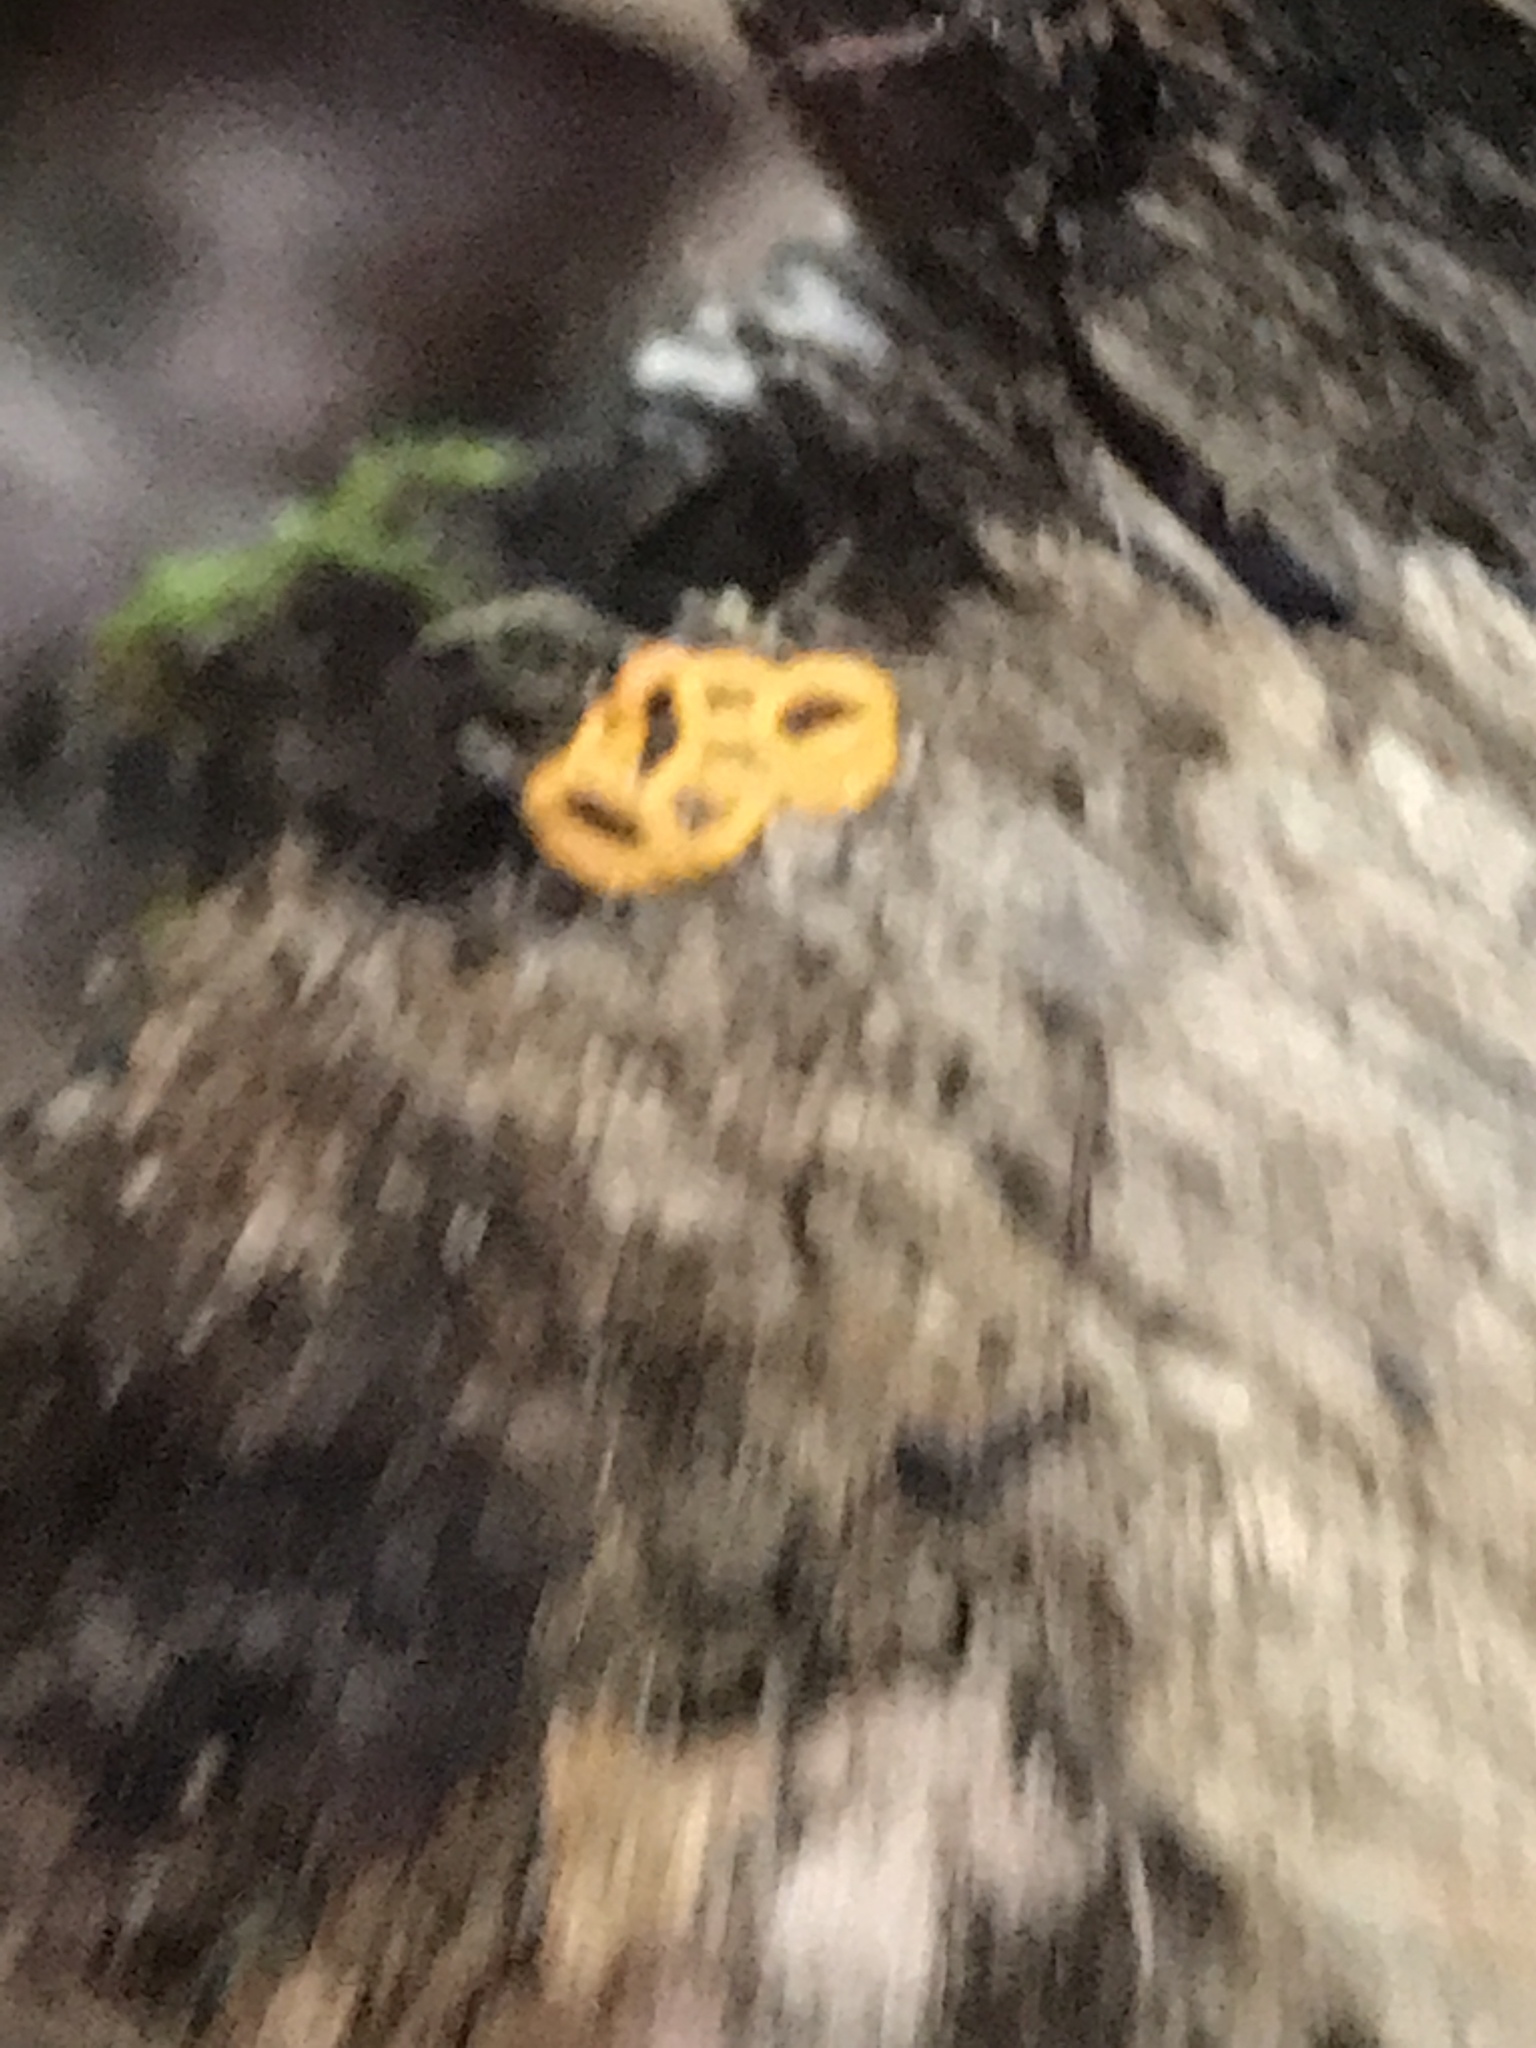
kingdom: Protozoa
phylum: Mycetozoa
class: Myxomycetes
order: Trichiales
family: Arcyriaceae
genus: Hemitrichia
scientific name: Hemitrichia serpula
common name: Pretzel slime mold
